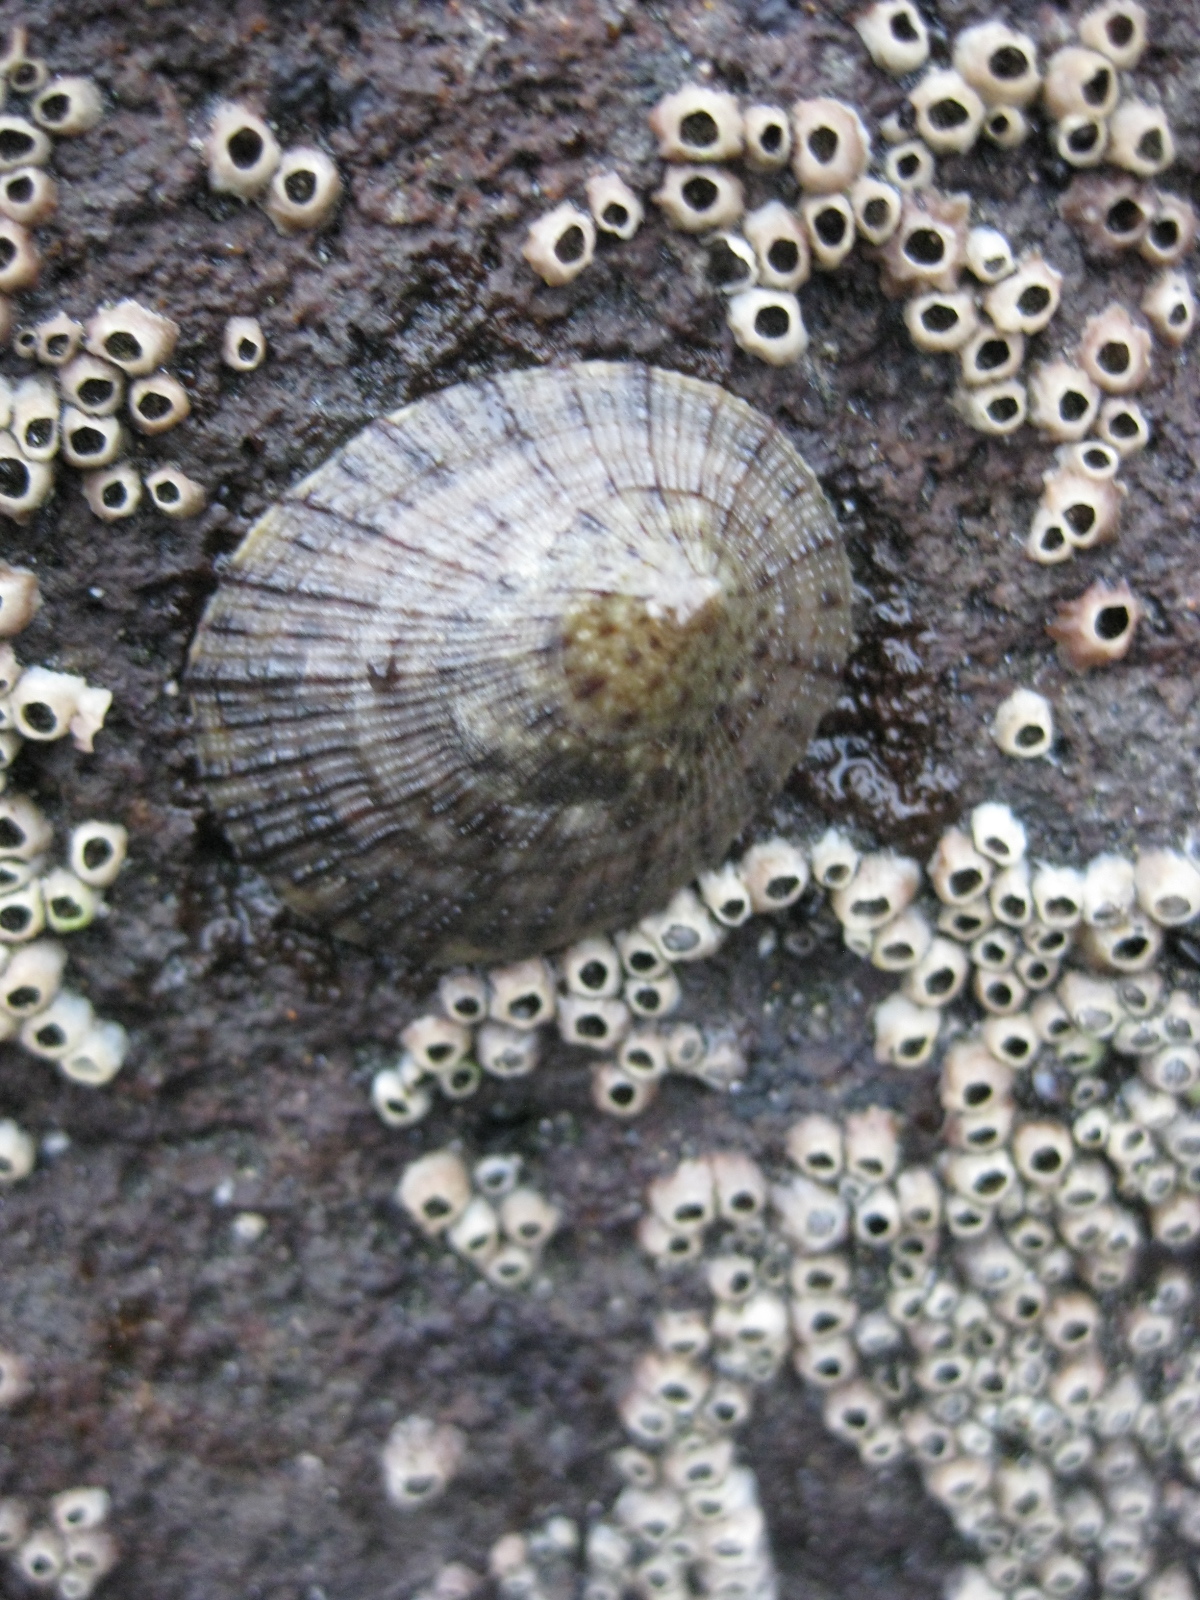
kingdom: Animalia
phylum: Mollusca
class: Gastropoda
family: Nacellidae
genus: Cellana
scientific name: Cellana radians
